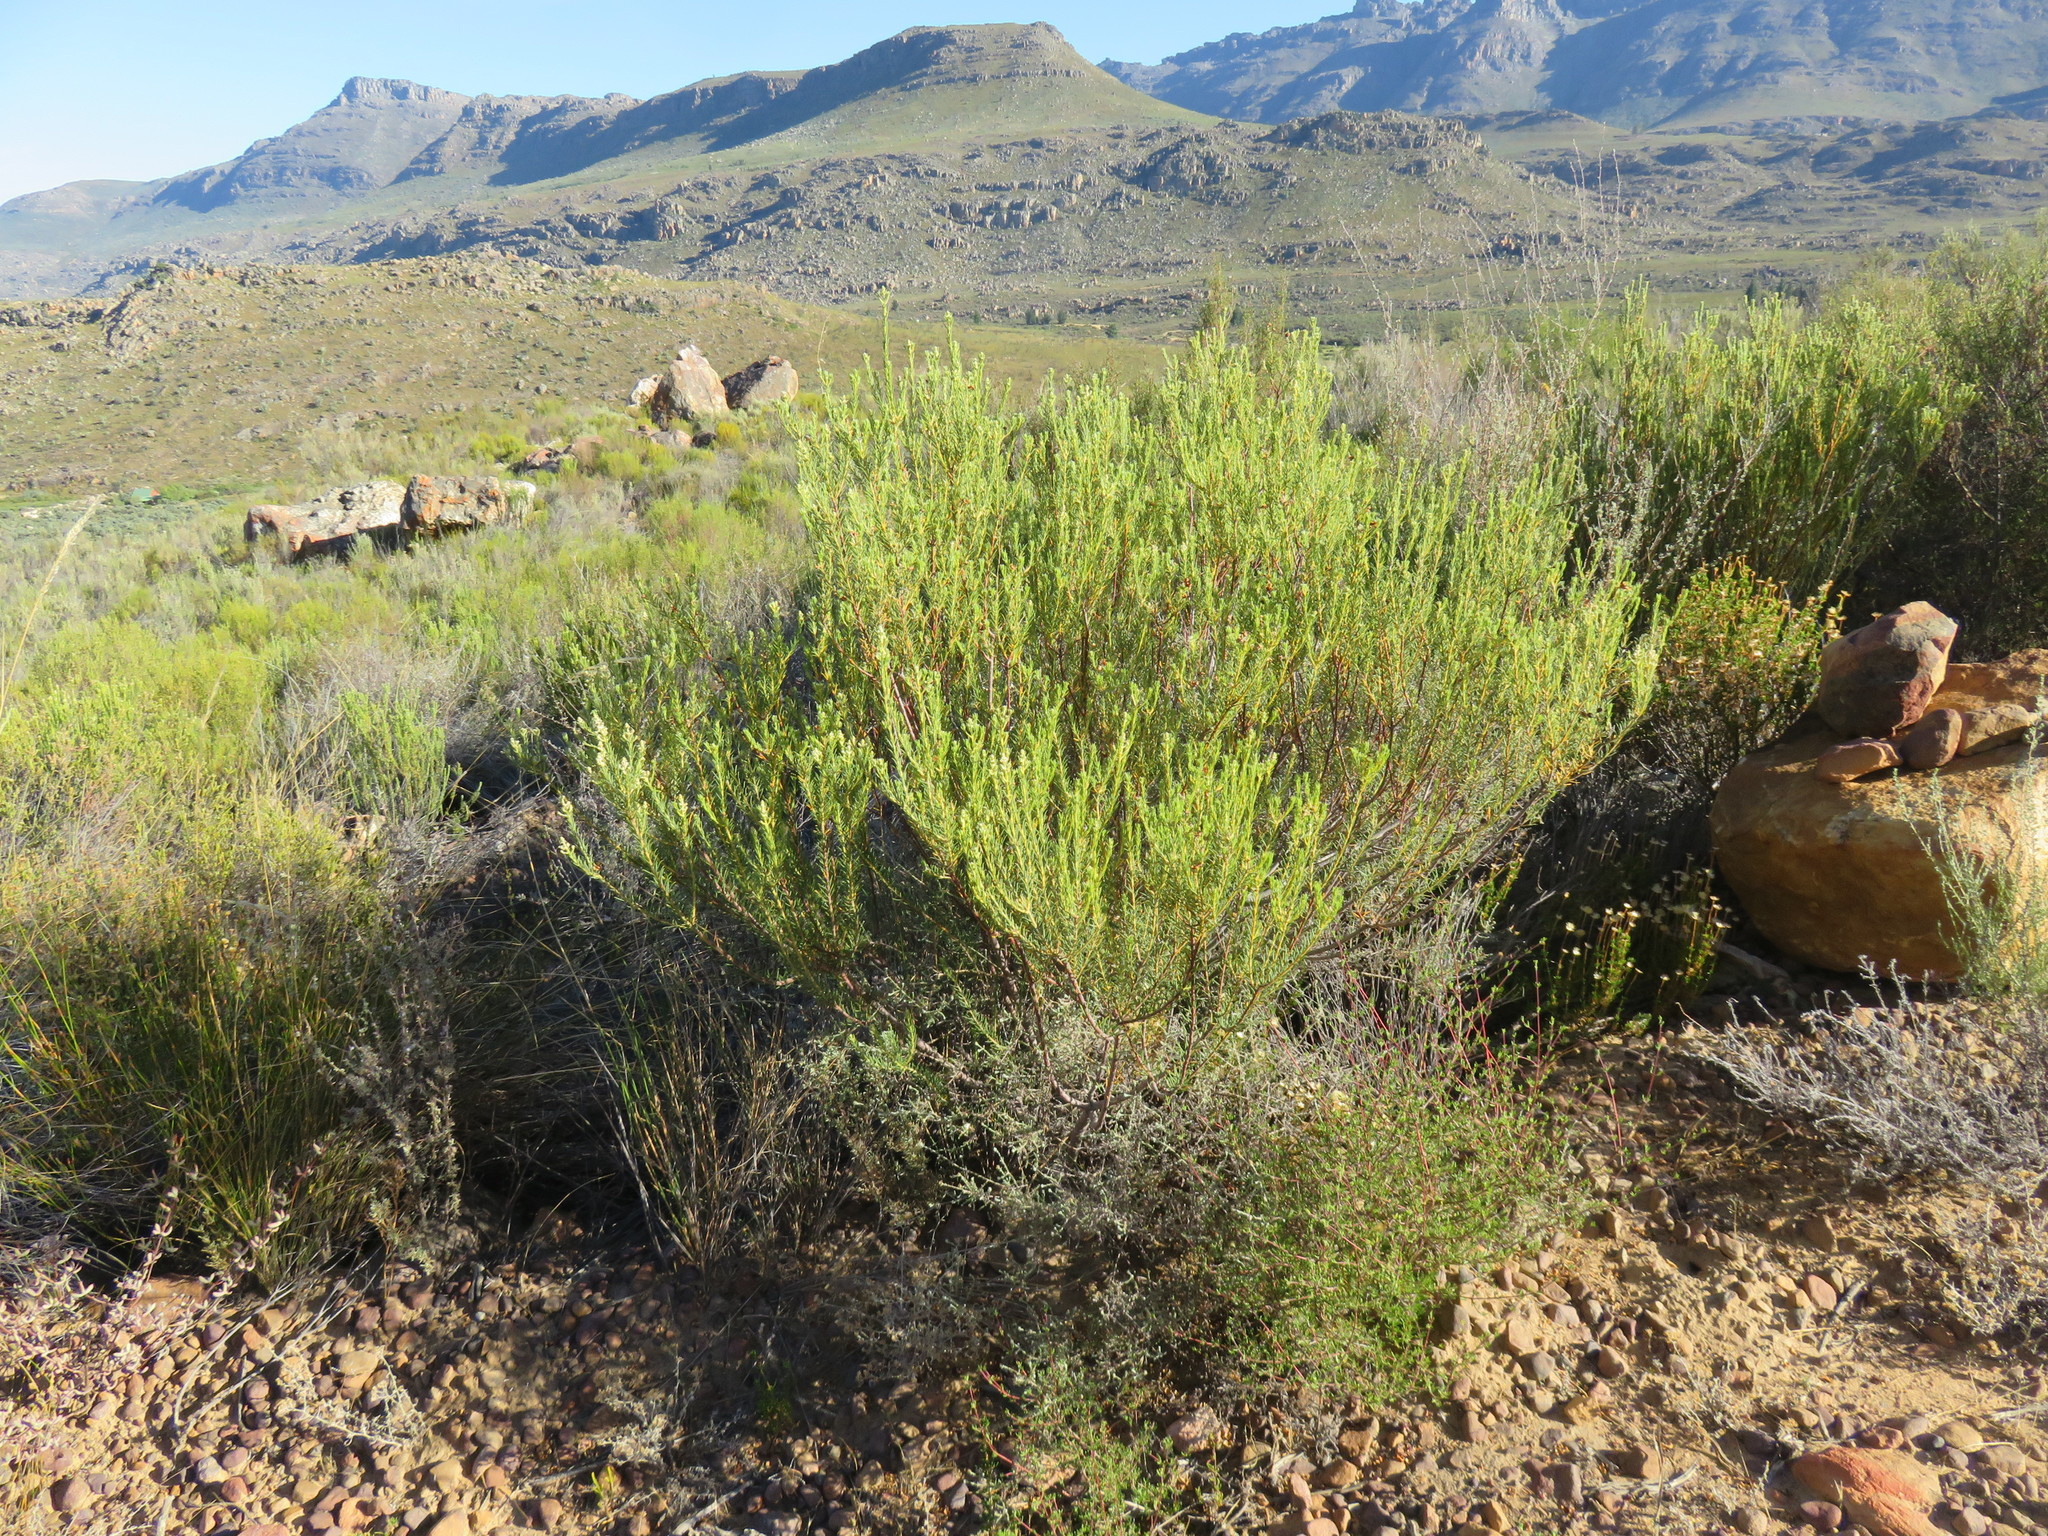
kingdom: Plantae
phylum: Tracheophyta
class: Magnoliopsida
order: Rosales
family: Rhamnaceae
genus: Phylica
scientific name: Phylica rigidifolia
